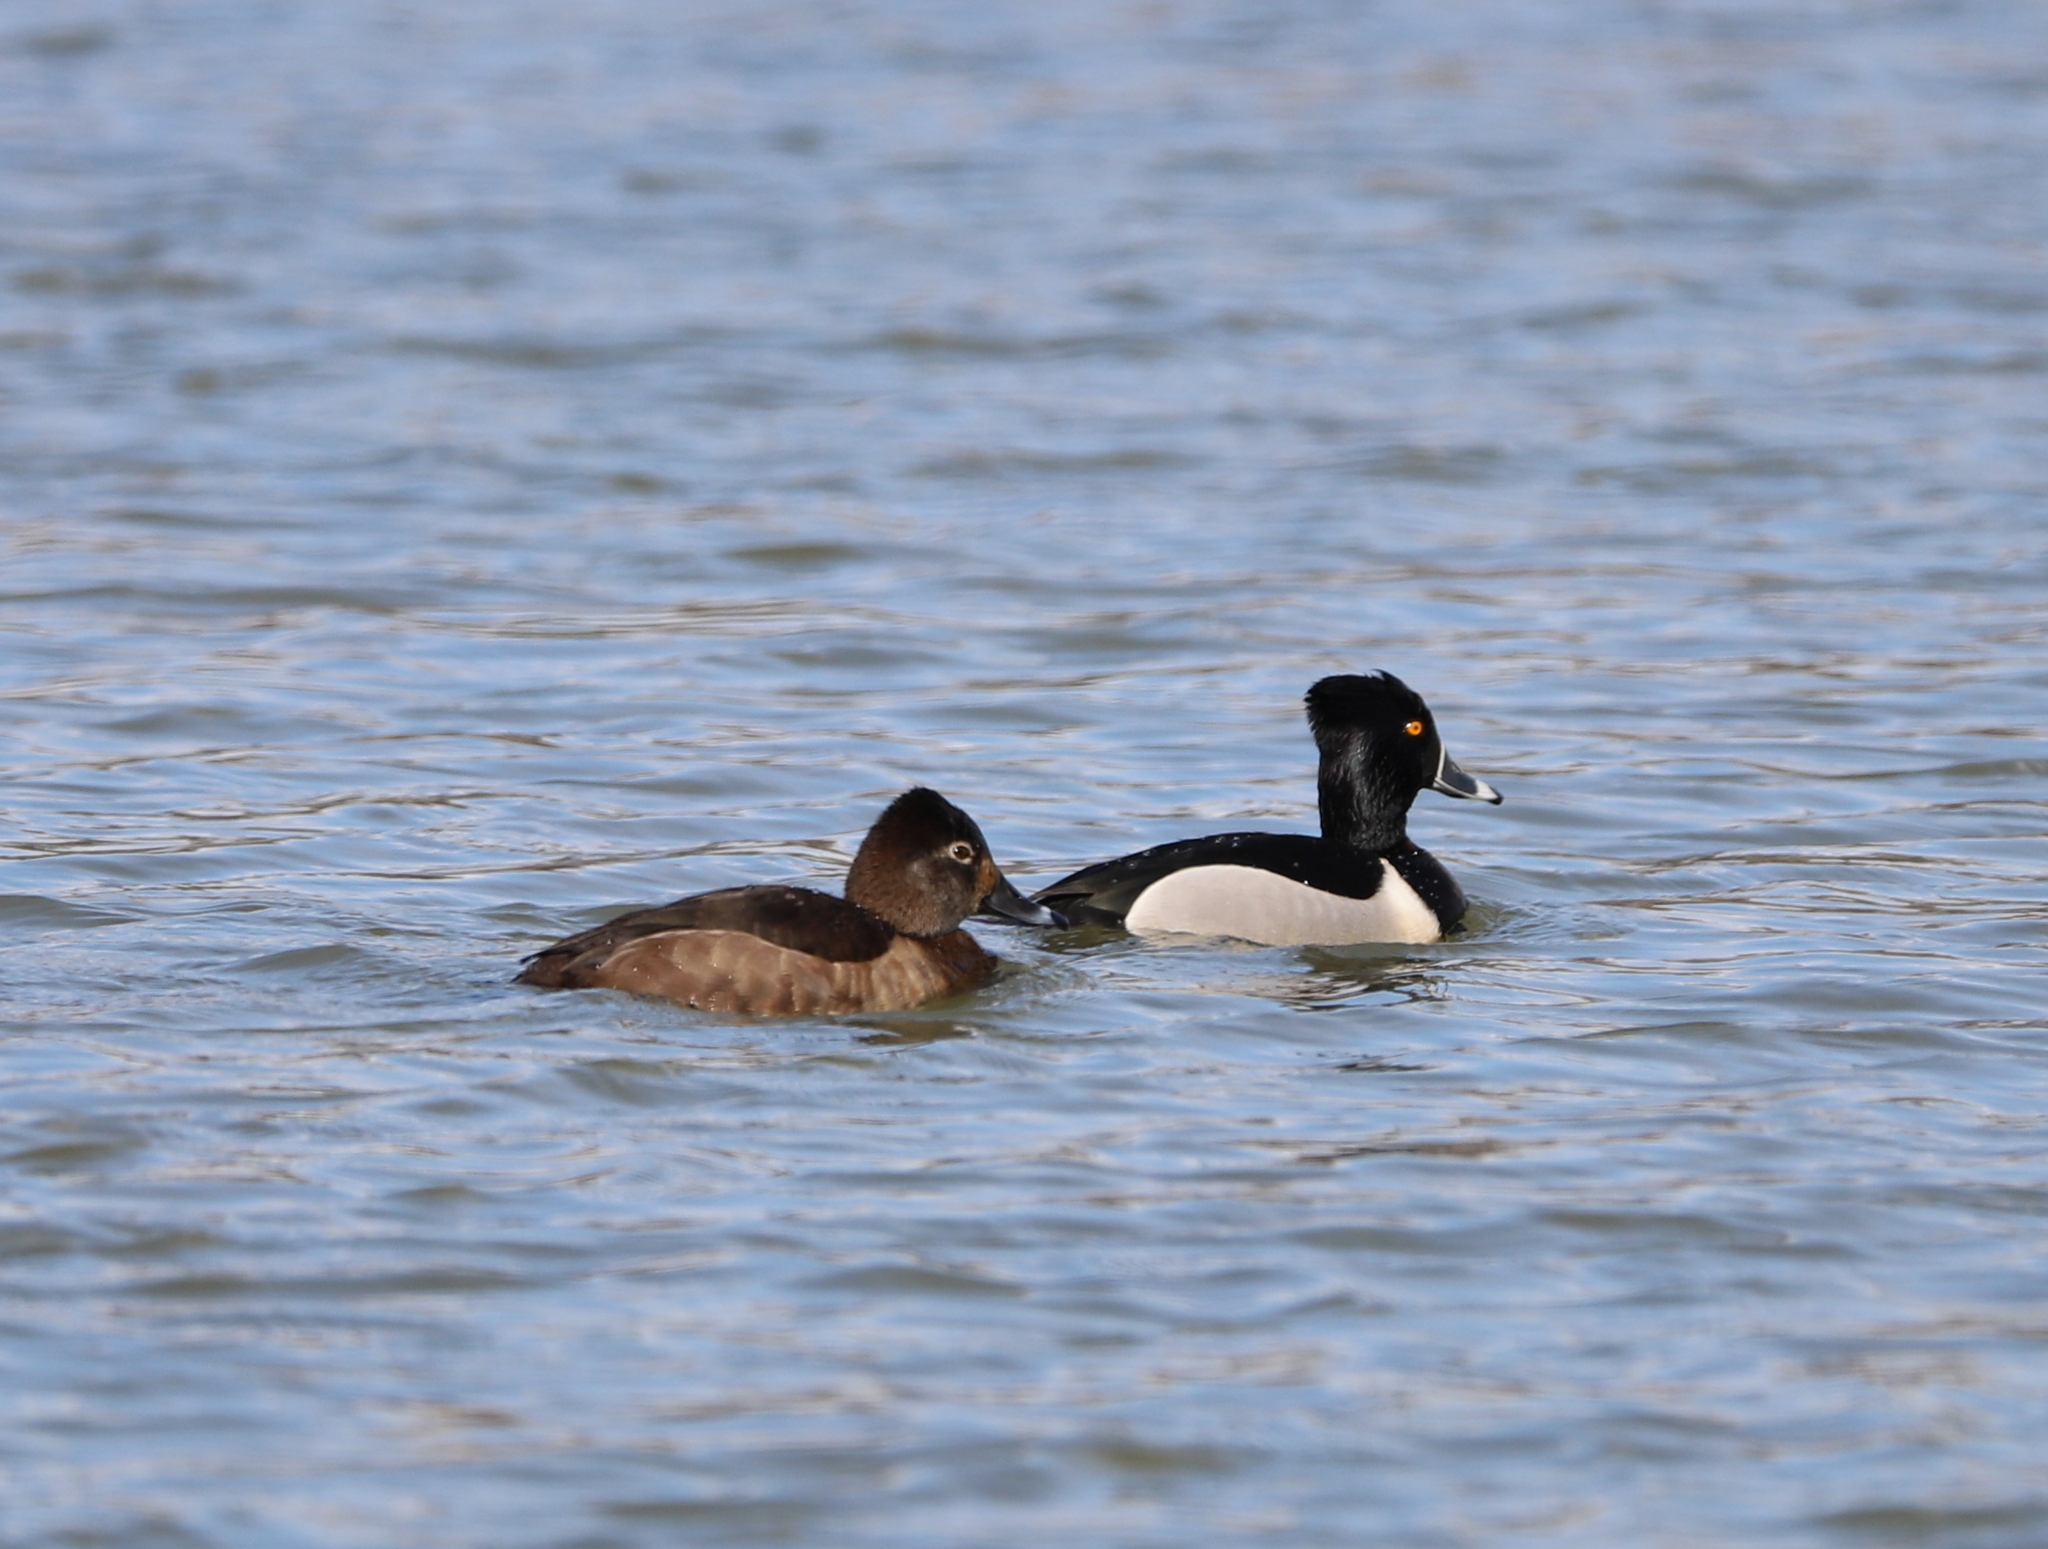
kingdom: Animalia
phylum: Chordata
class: Aves
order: Anseriformes
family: Anatidae
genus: Aythya
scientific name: Aythya collaris
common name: Ring-necked duck
